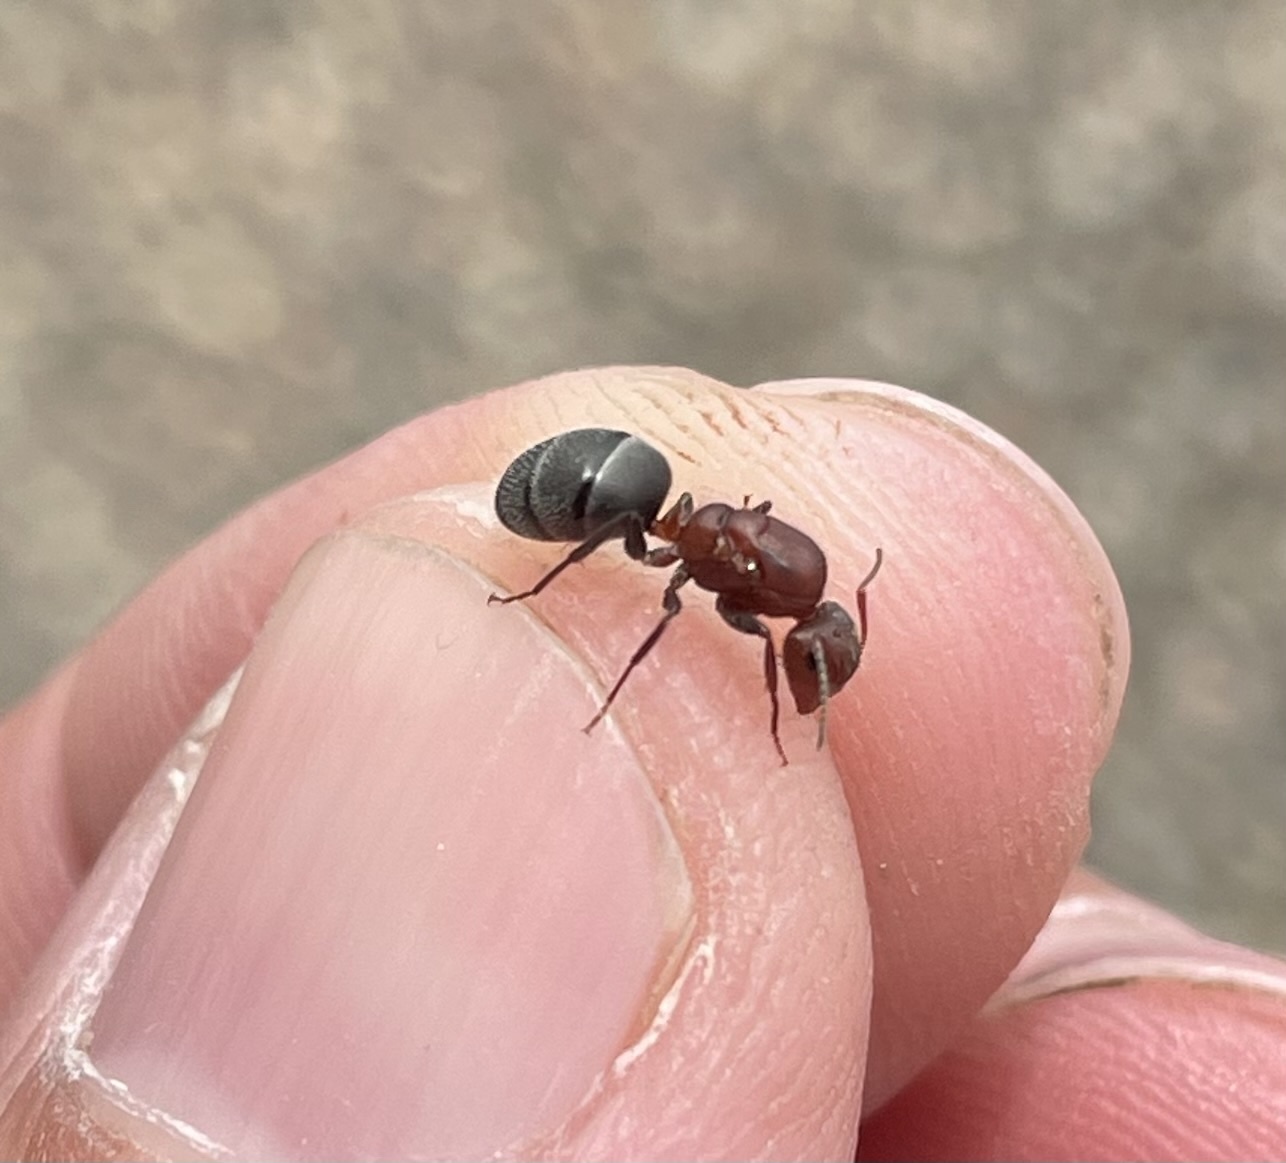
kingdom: Animalia
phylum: Arthropoda
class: Insecta
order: Hymenoptera
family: Formicidae
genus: Camponotus
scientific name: Camponotus planatus
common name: Compact carpenter ant
